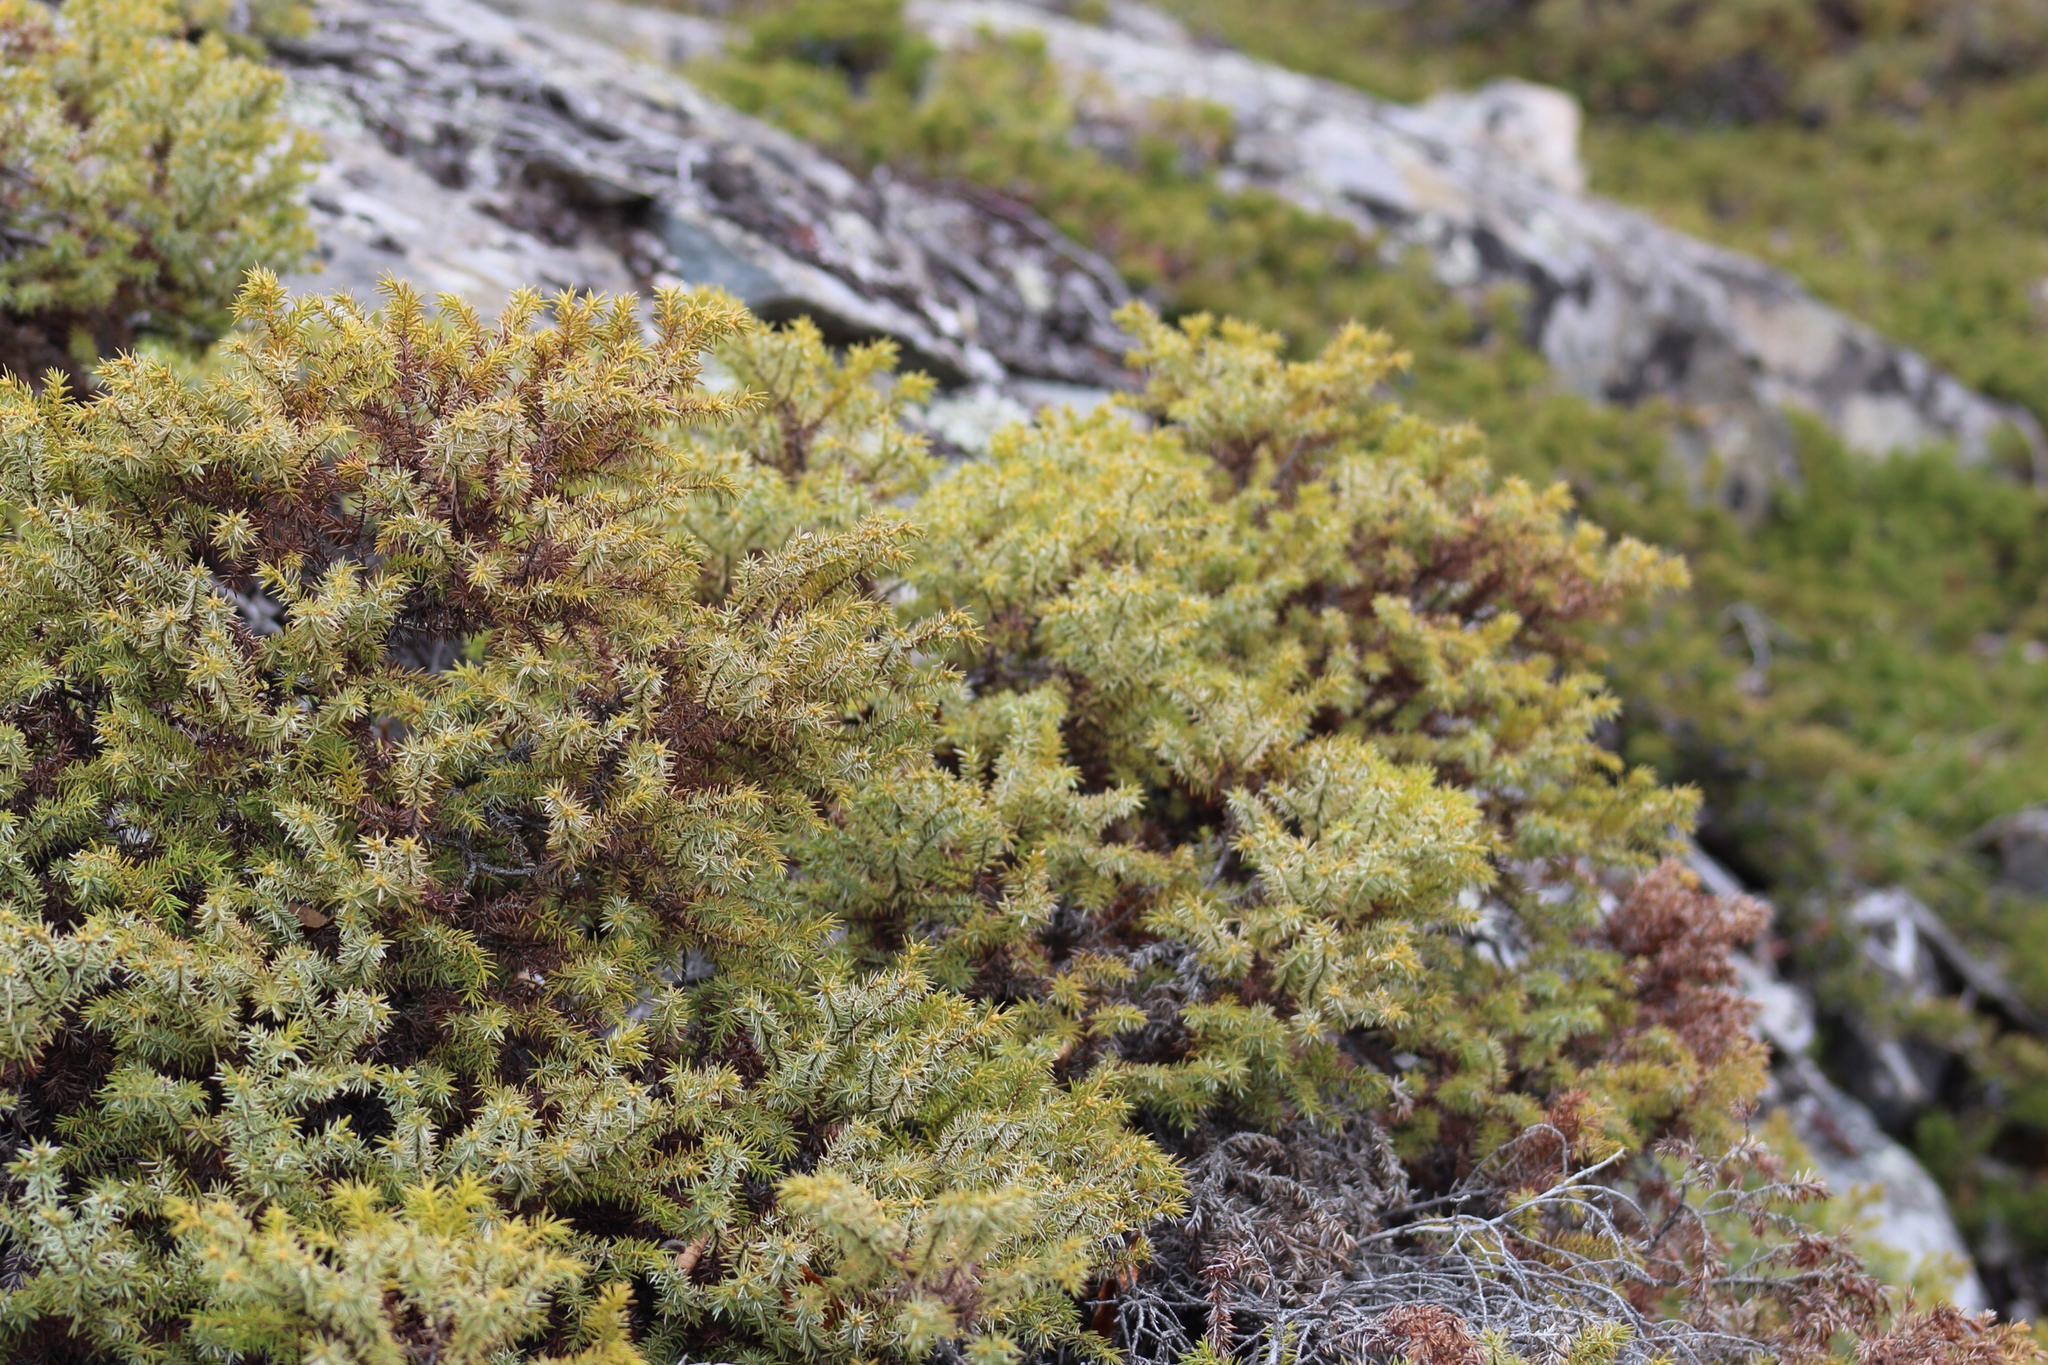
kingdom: Plantae
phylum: Tracheophyta
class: Pinopsida
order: Pinales
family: Cupressaceae
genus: Juniperus
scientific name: Juniperus communis
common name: Common juniper
